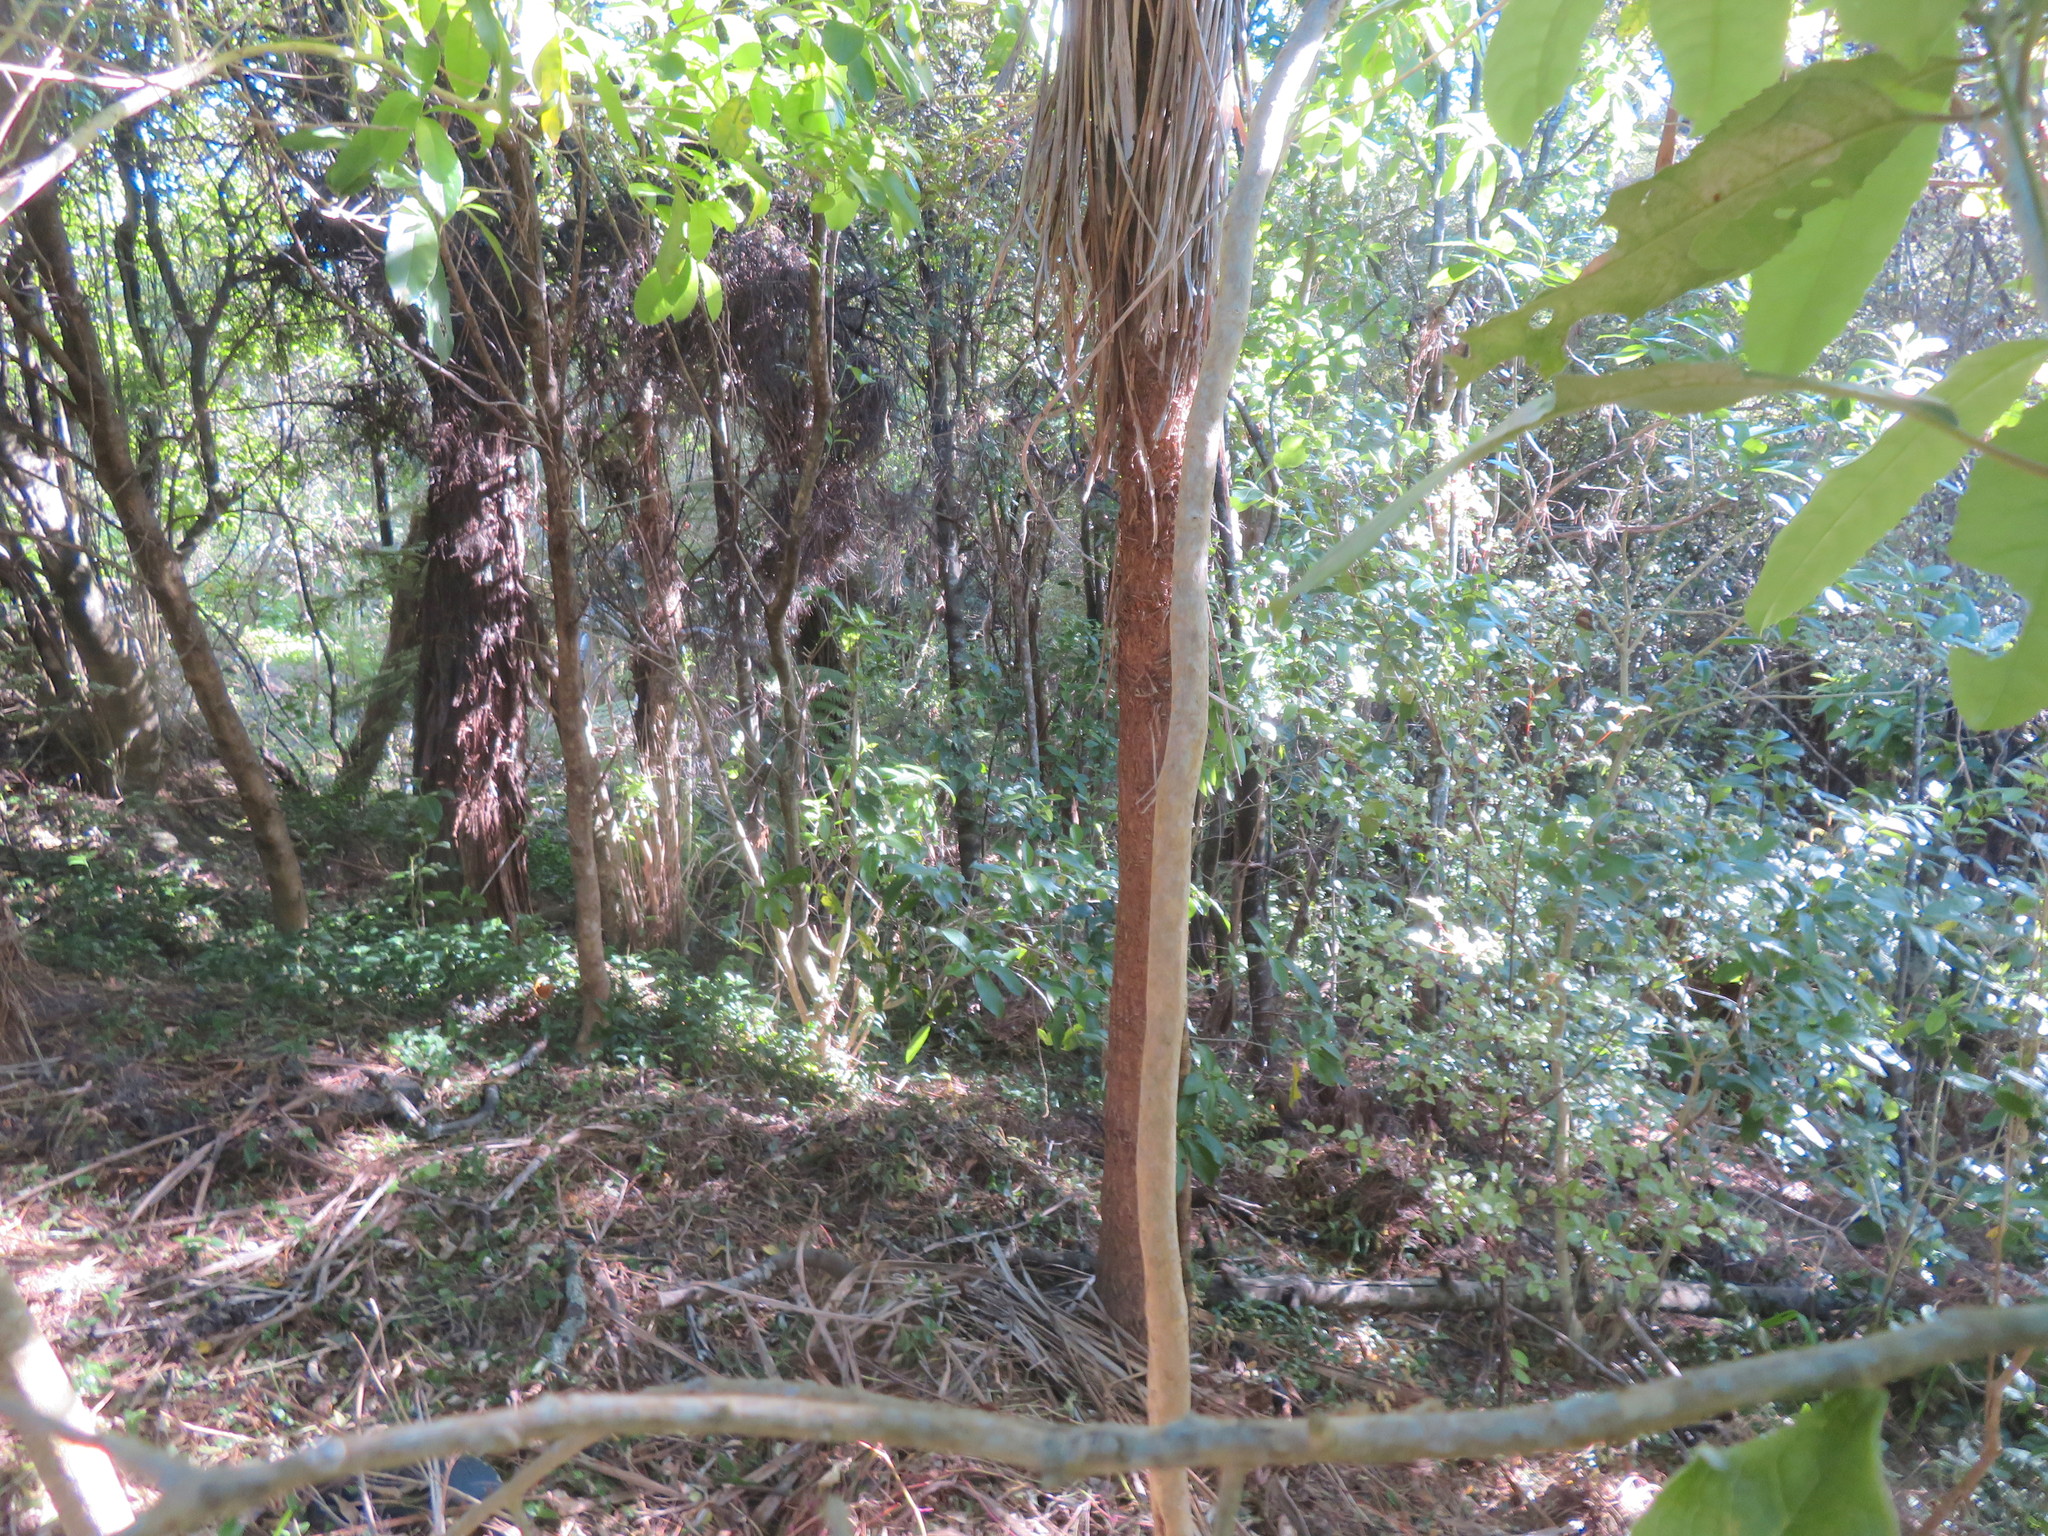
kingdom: Plantae
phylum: Tracheophyta
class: Liliopsida
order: Commelinales
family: Commelinaceae
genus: Tradescantia
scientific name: Tradescantia fluminensis
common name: Wandering-jew
